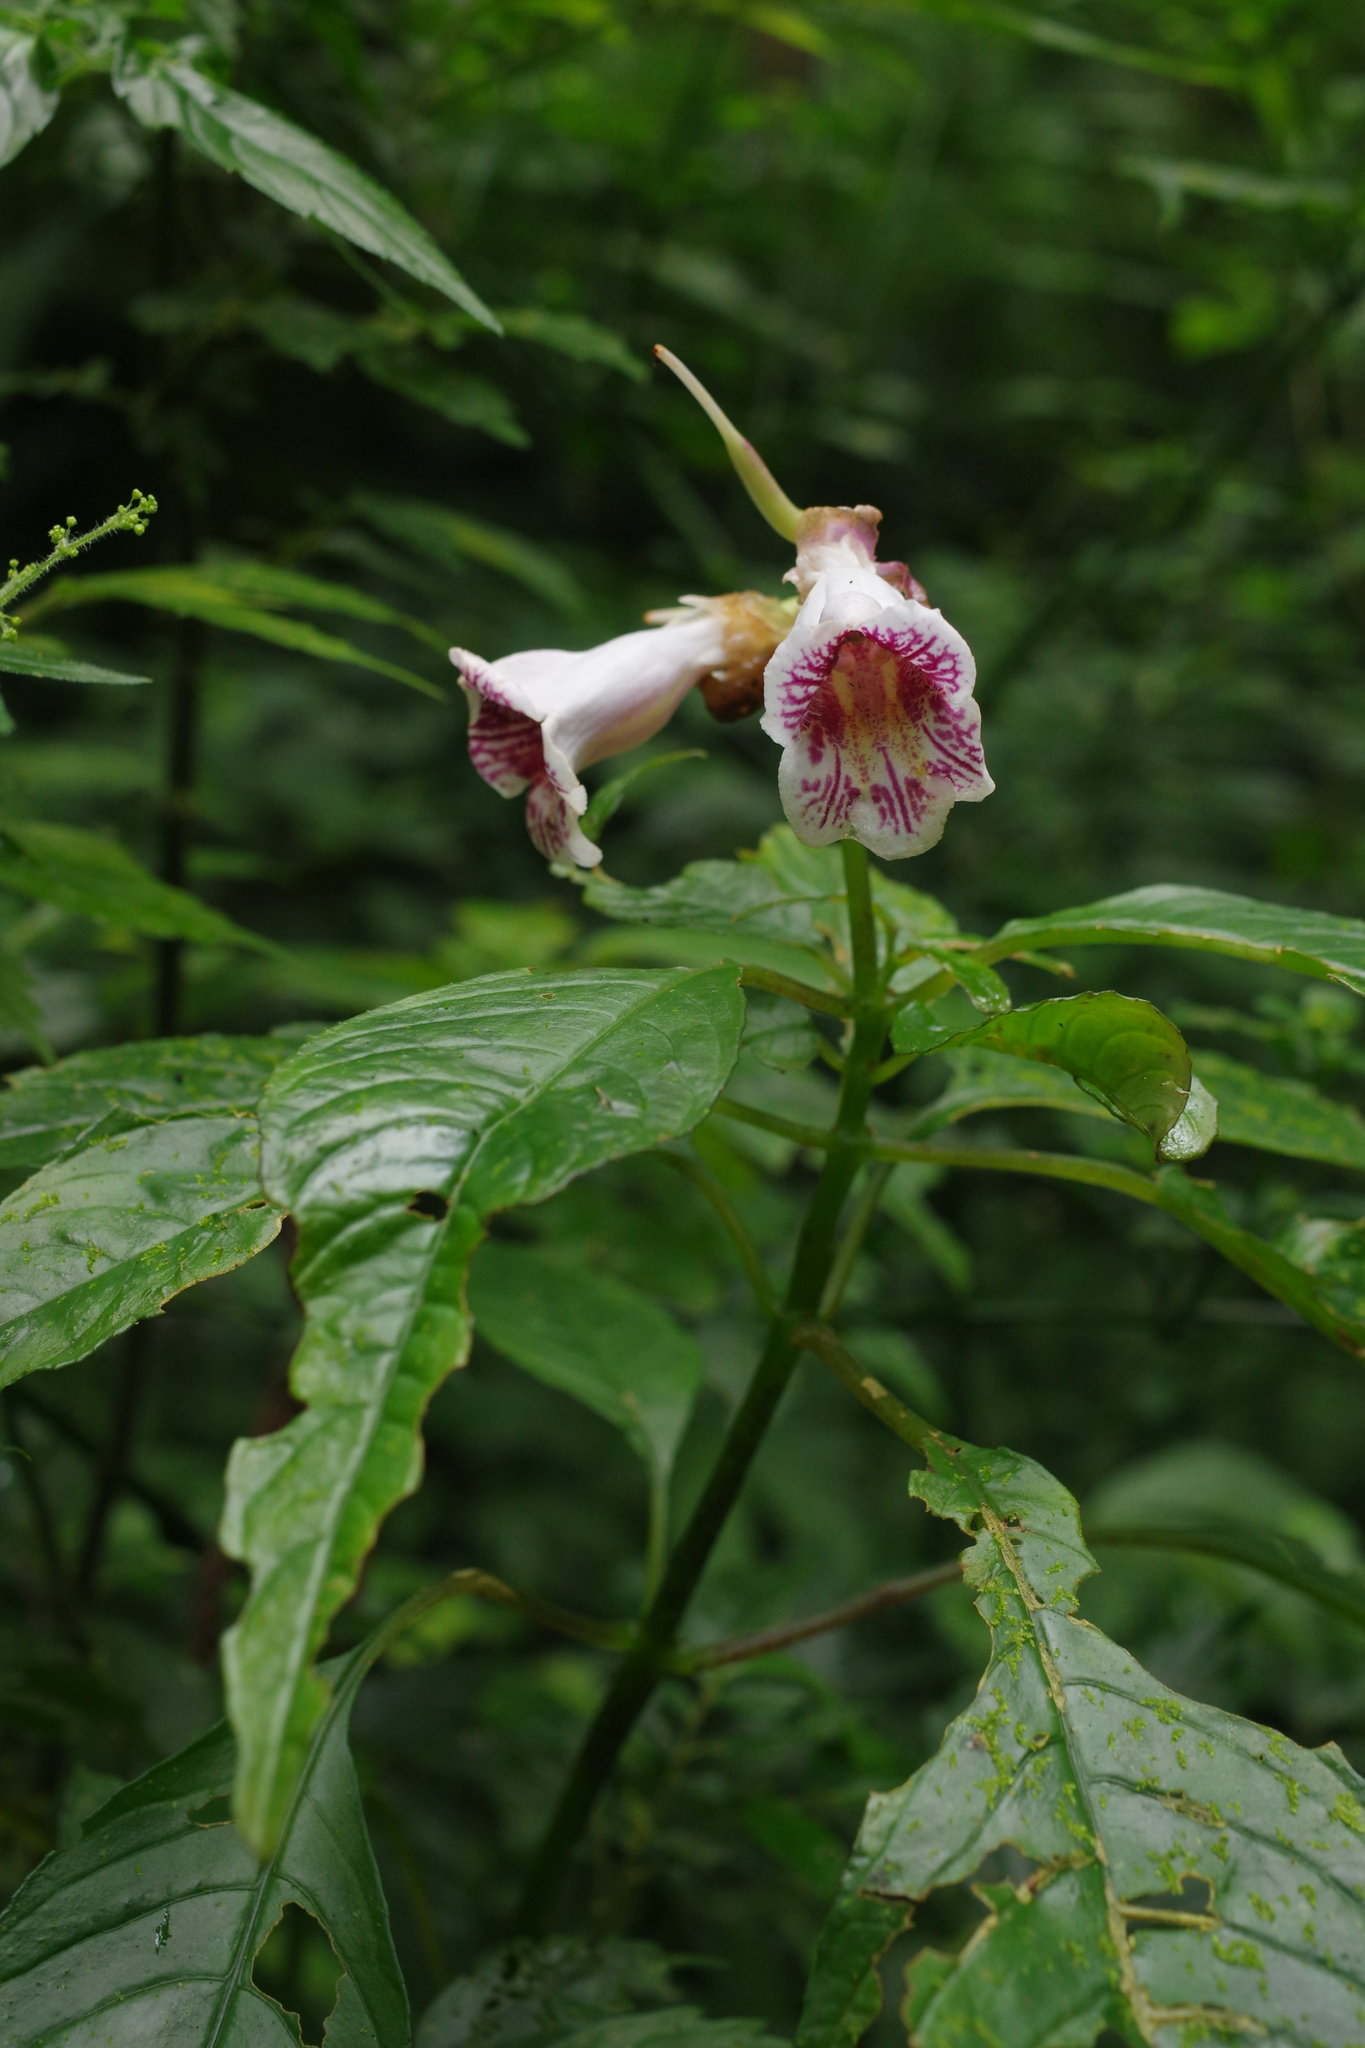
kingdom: Plantae
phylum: Tracheophyta
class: Magnoliopsida
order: Lamiales
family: Gesneriaceae
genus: Hemiboea
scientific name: Hemiboea bicornuta
